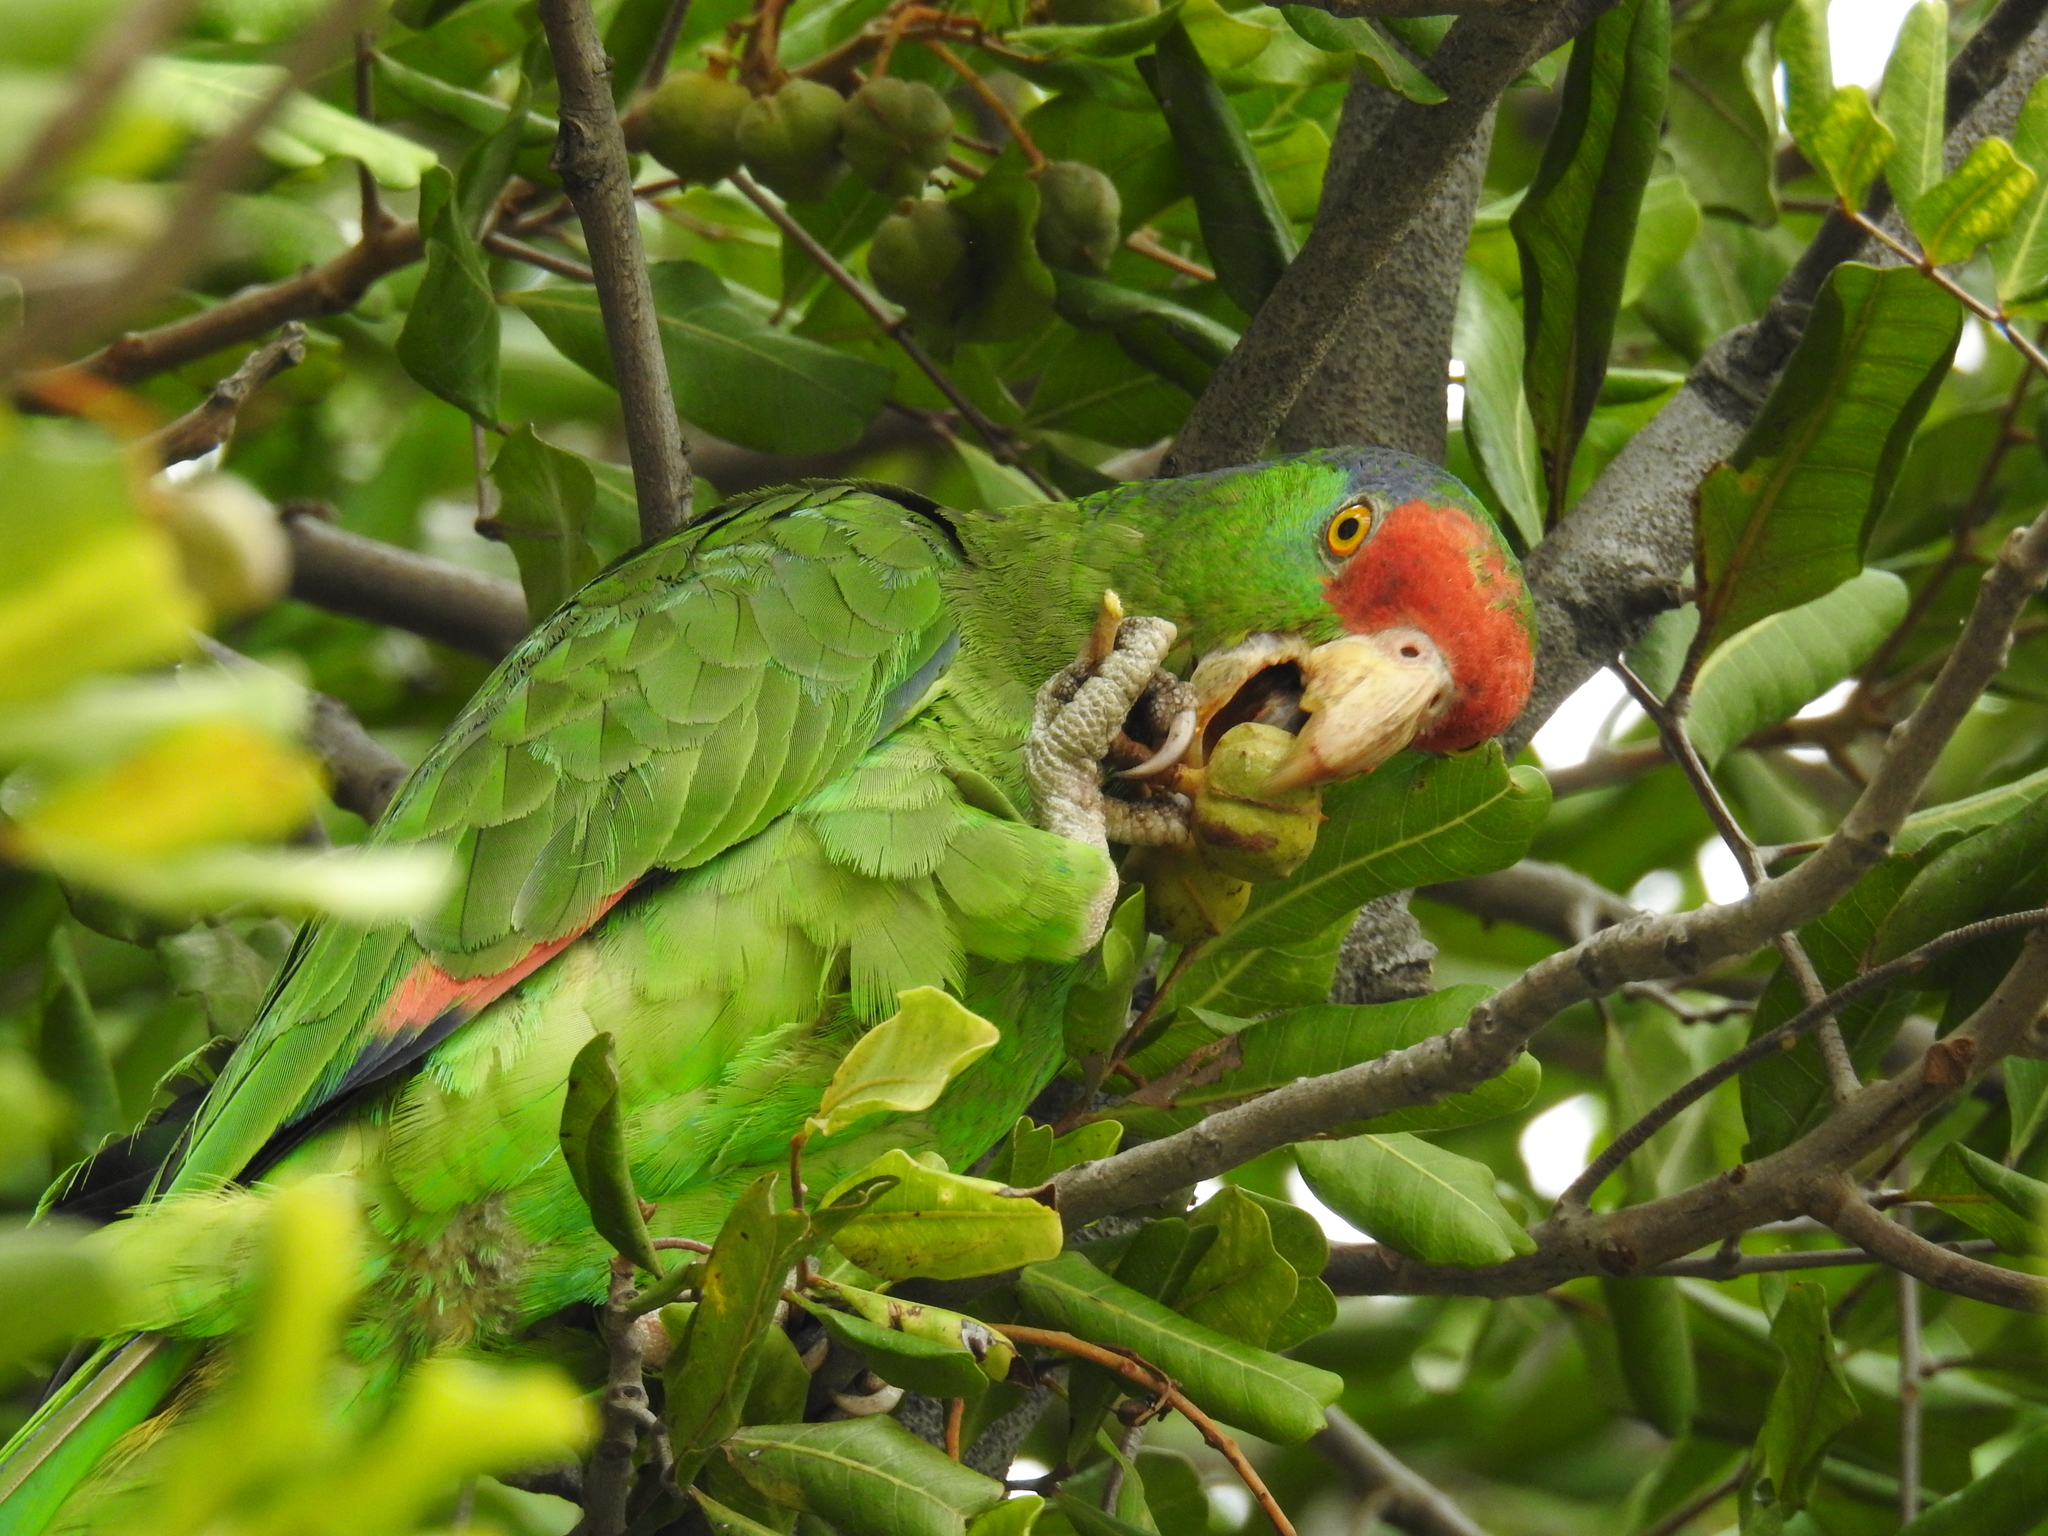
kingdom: Animalia
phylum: Chordata
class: Aves
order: Psittaciformes
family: Psittacidae
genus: Amazona
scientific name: Amazona viridigenalis
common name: Red-crowned amazon
